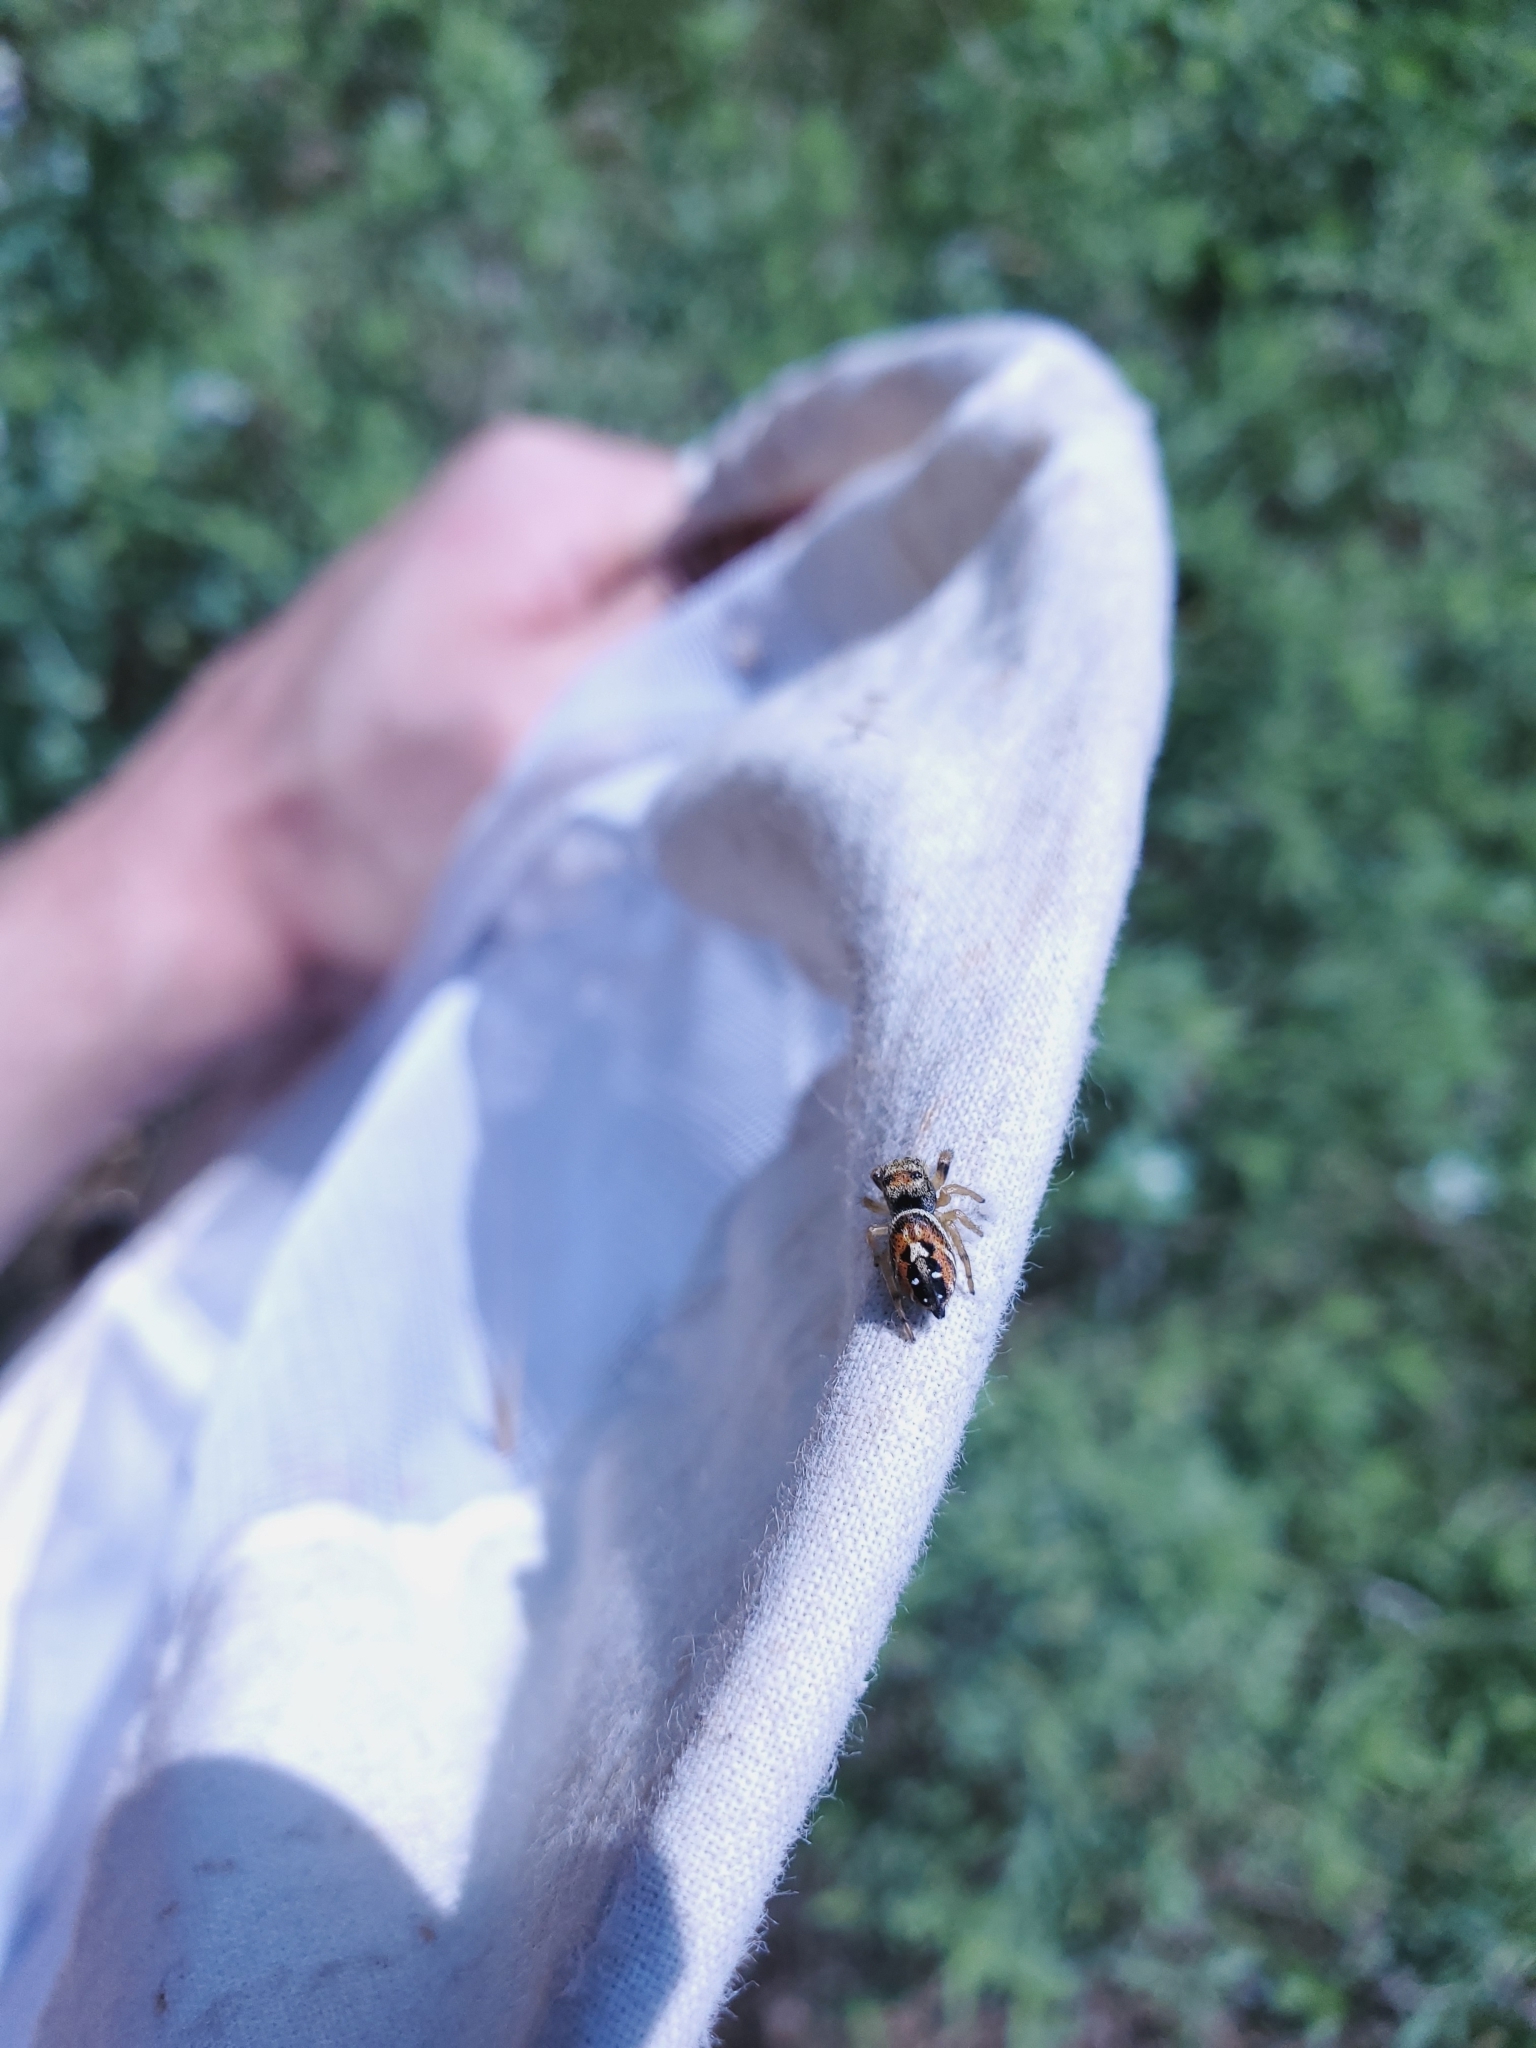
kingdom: Animalia
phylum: Arthropoda
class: Arachnida
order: Araneae
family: Salticidae
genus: Phidippus
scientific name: Phidippus apacheanus
